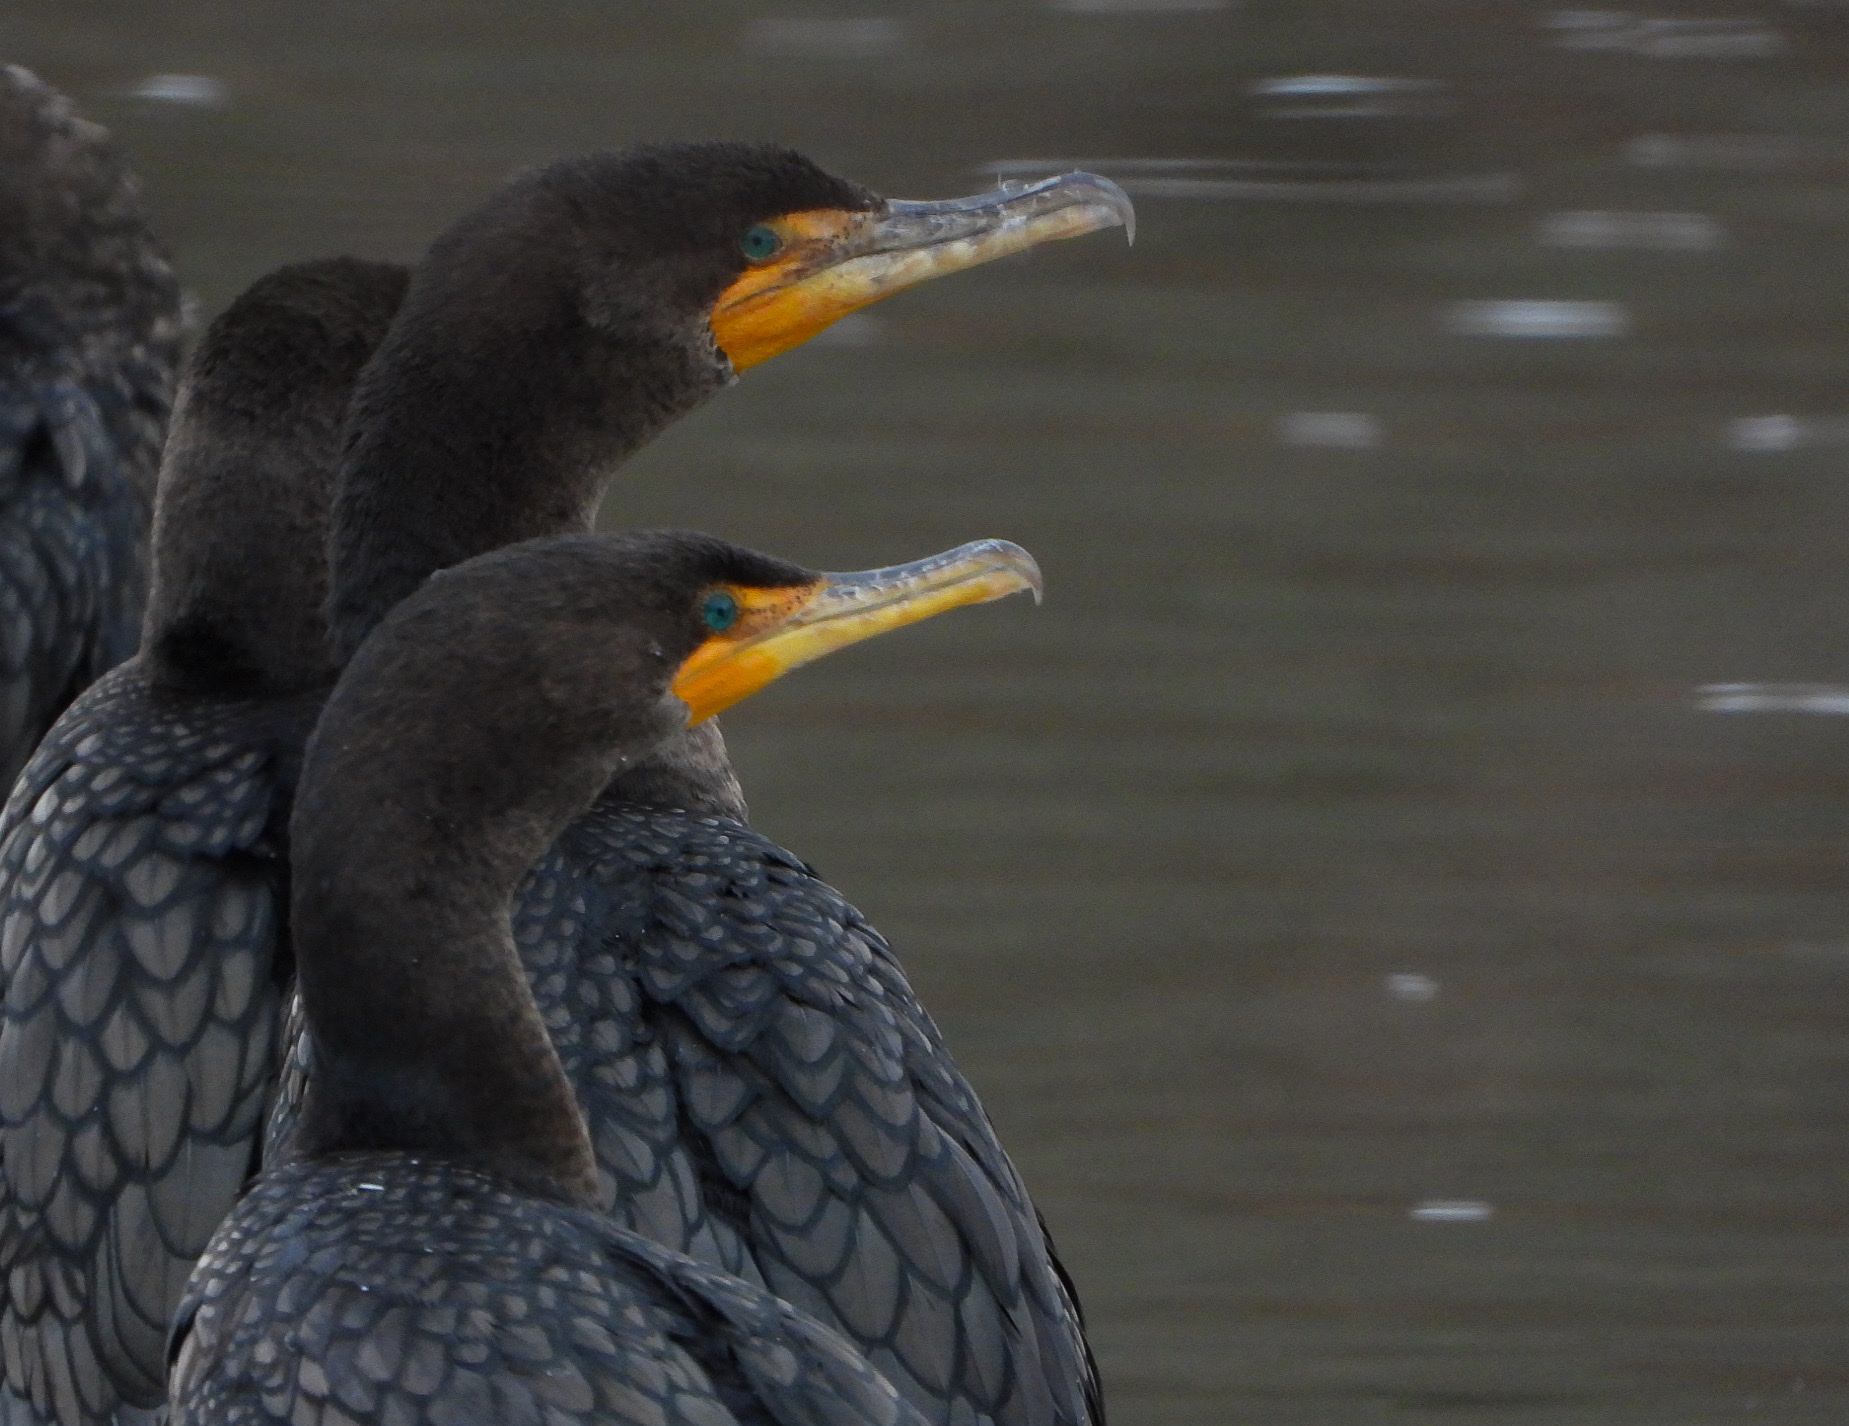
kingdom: Animalia
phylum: Chordata
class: Aves
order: Suliformes
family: Phalacrocoracidae
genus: Phalacrocorax
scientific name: Phalacrocorax auritus
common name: Double-crested cormorant
